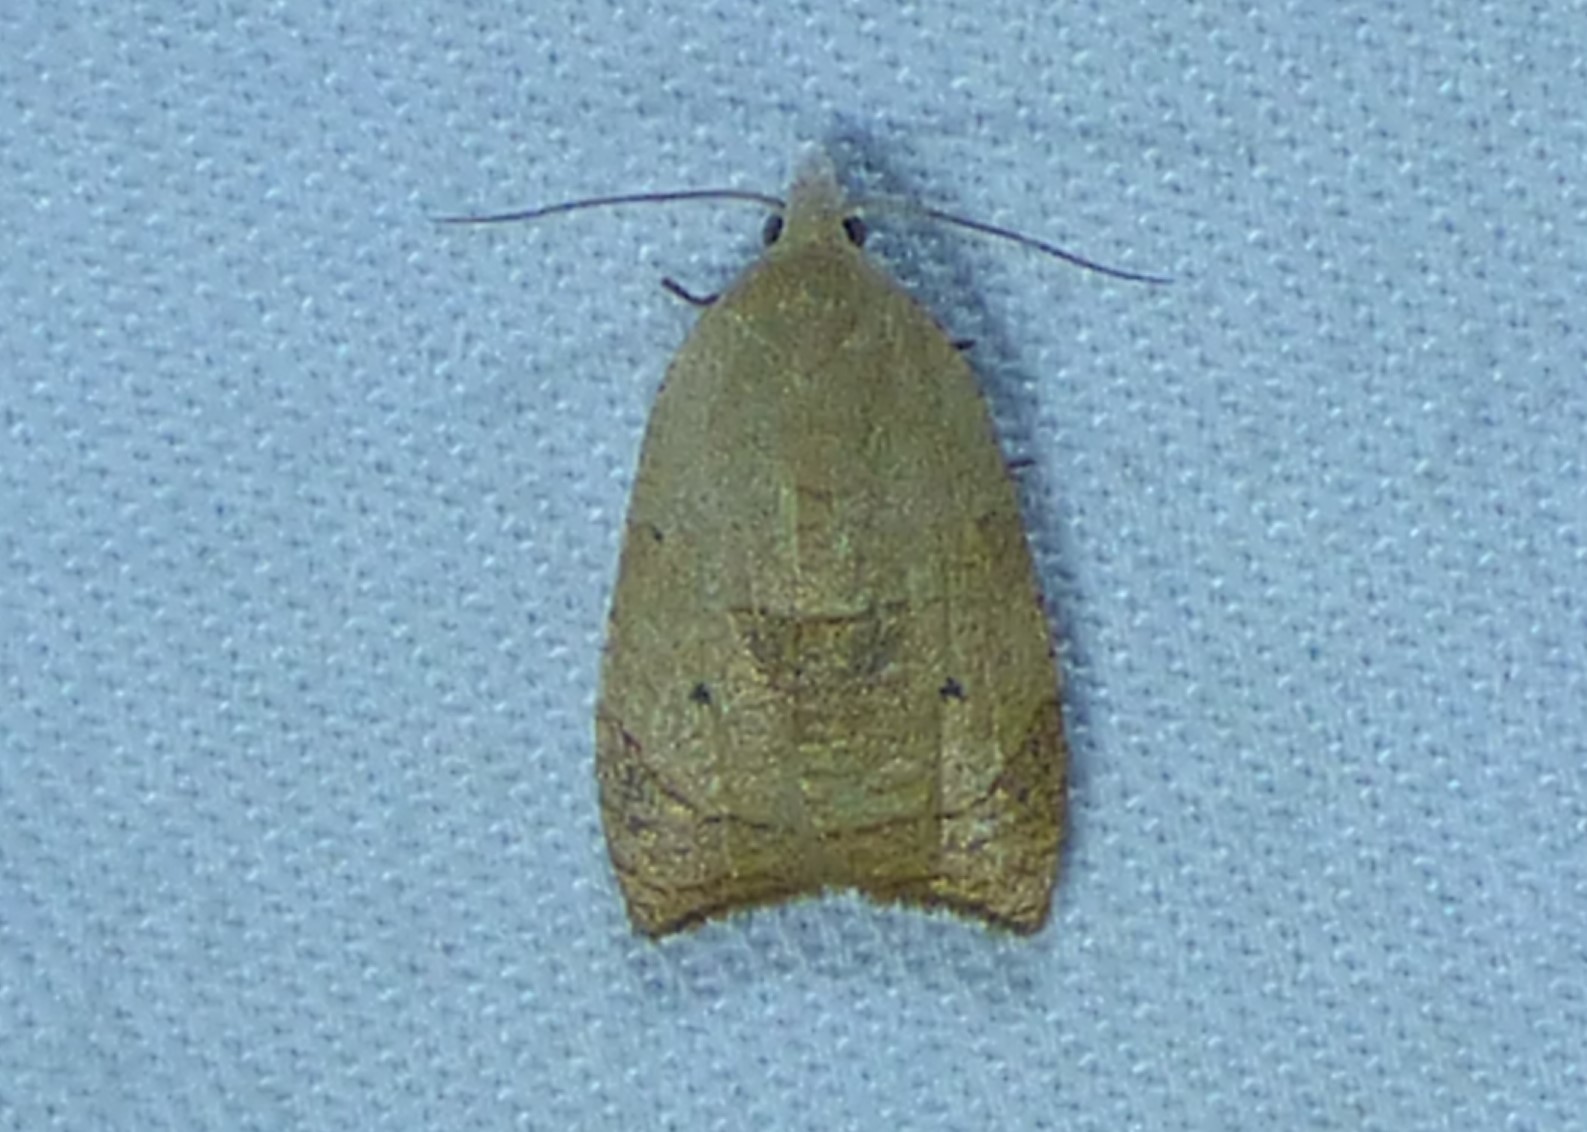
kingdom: Animalia
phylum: Arthropoda
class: Insecta
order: Lepidoptera
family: Tortricidae
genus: Coelostathma
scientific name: Coelostathma discopunctana
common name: Batman moth
